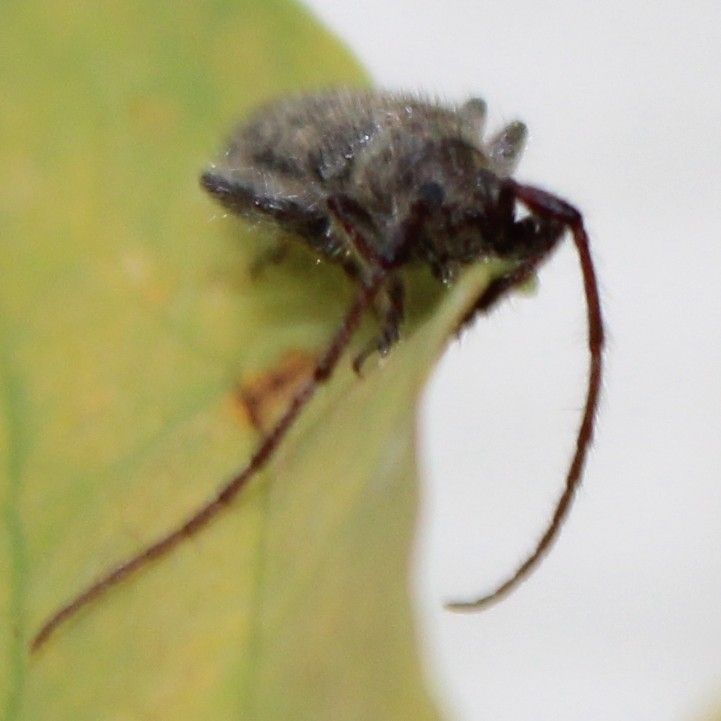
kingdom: Animalia
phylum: Arthropoda
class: Insecta
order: Coleoptera
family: Cerambycidae
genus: Eupogonius
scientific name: Eupogonius pauper
